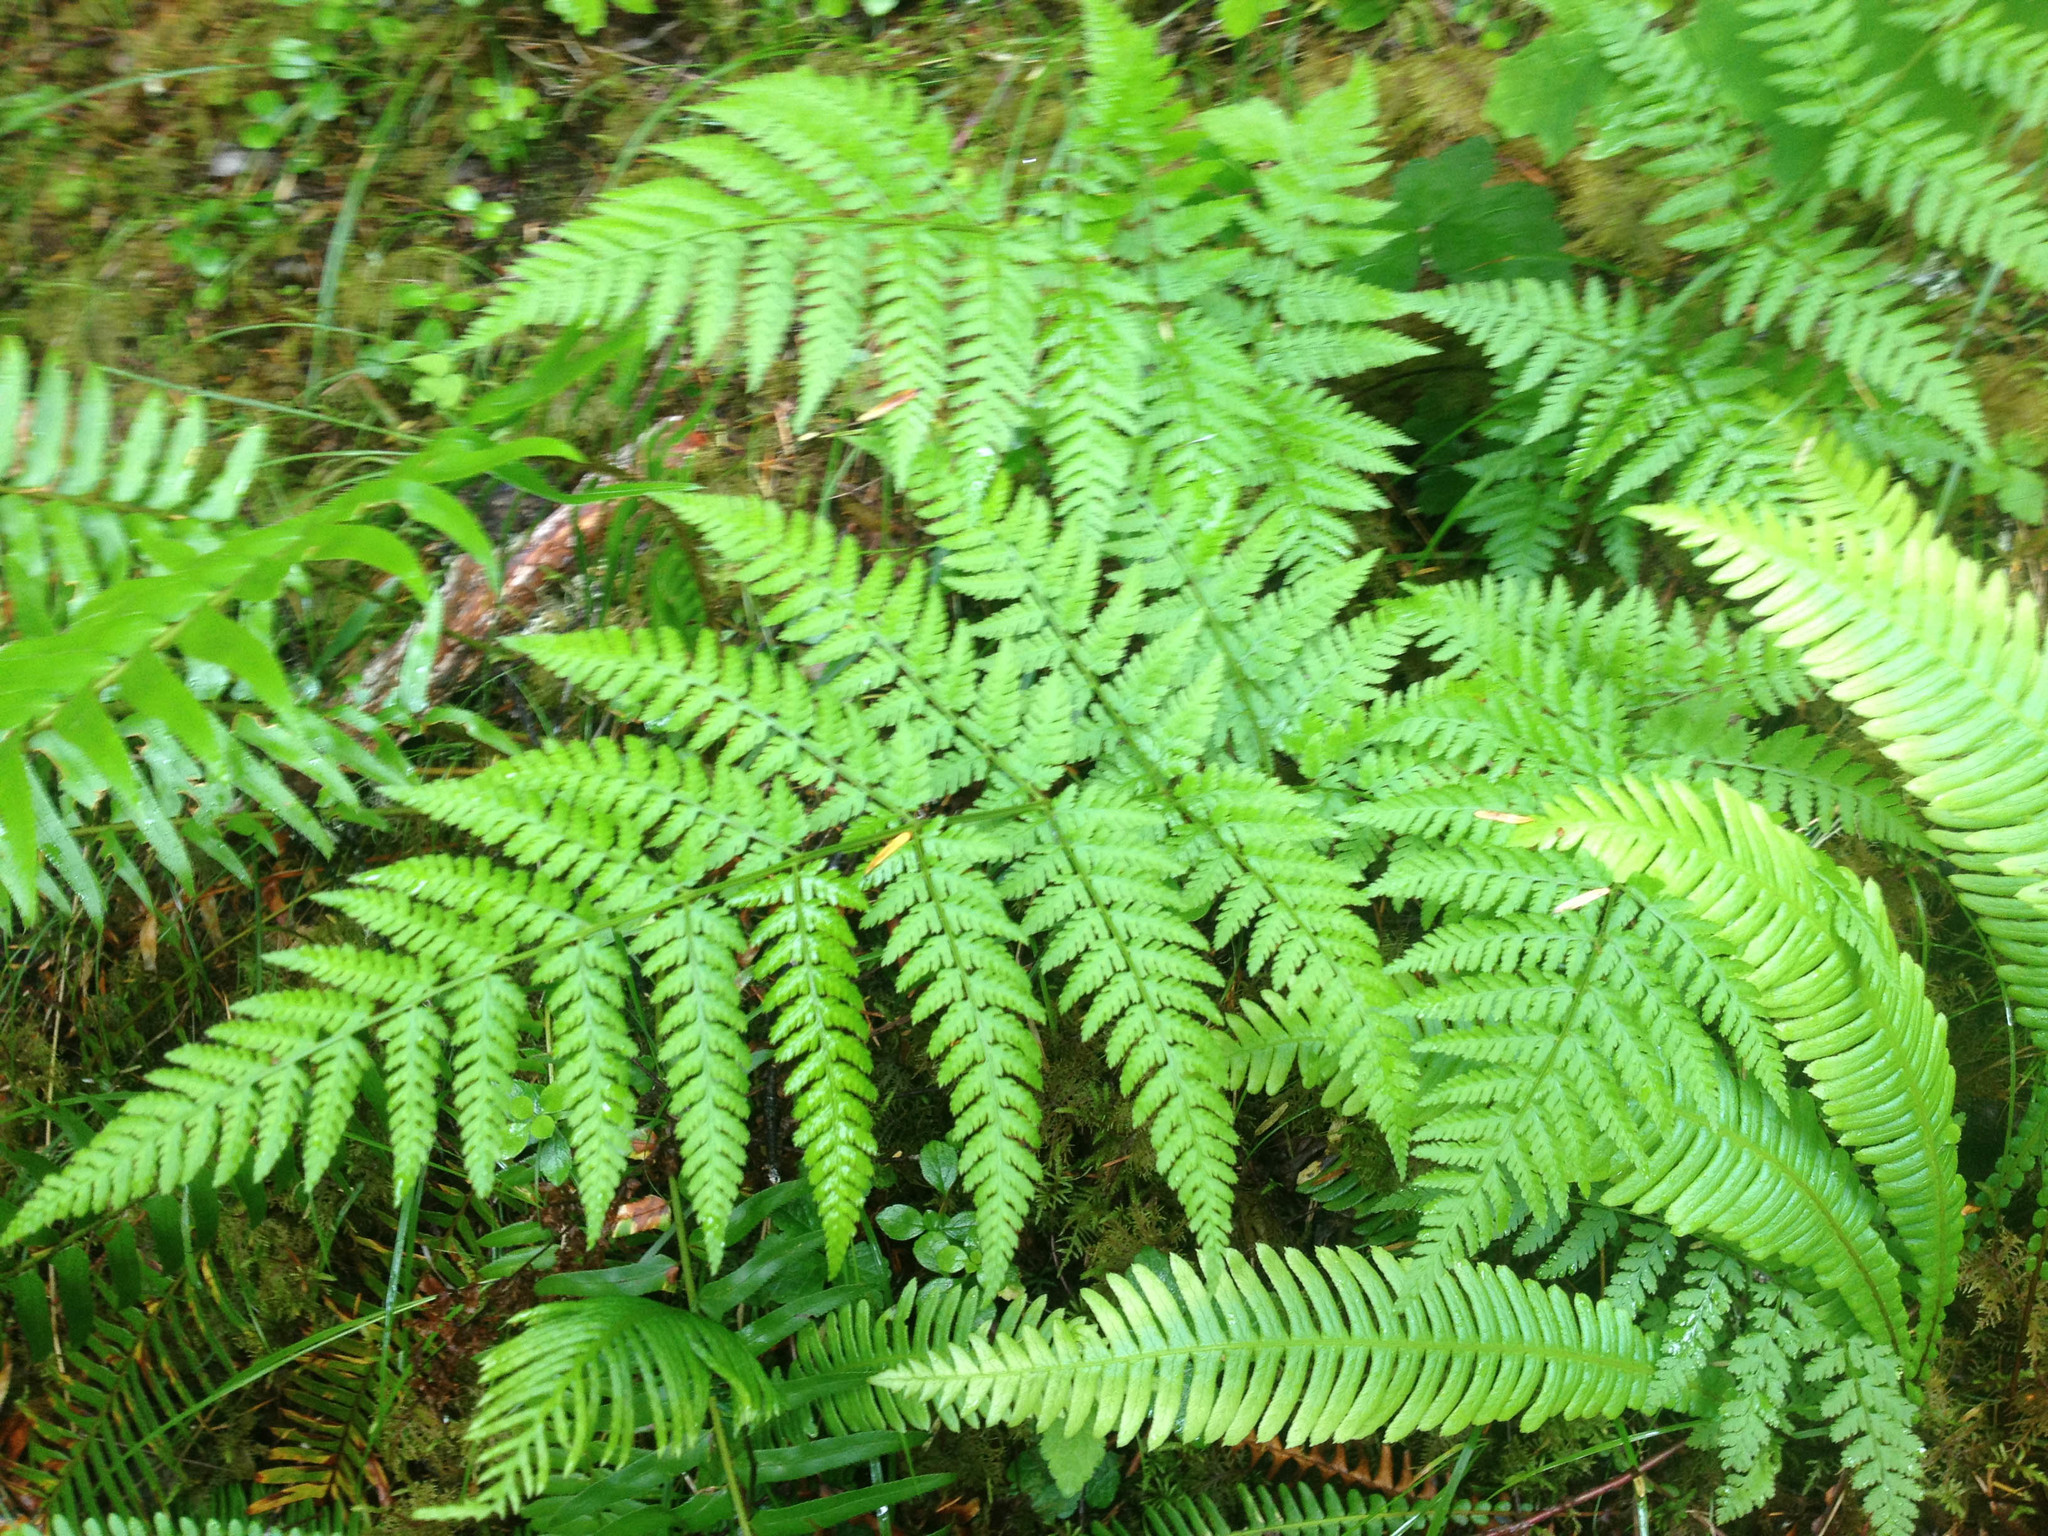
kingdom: Plantae
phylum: Tracheophyta
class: Polypodiopsida
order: Polypodiales
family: Dryopteridaceae
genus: Dryopteris
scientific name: Dryopteris expansa
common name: Northern buckler fern
